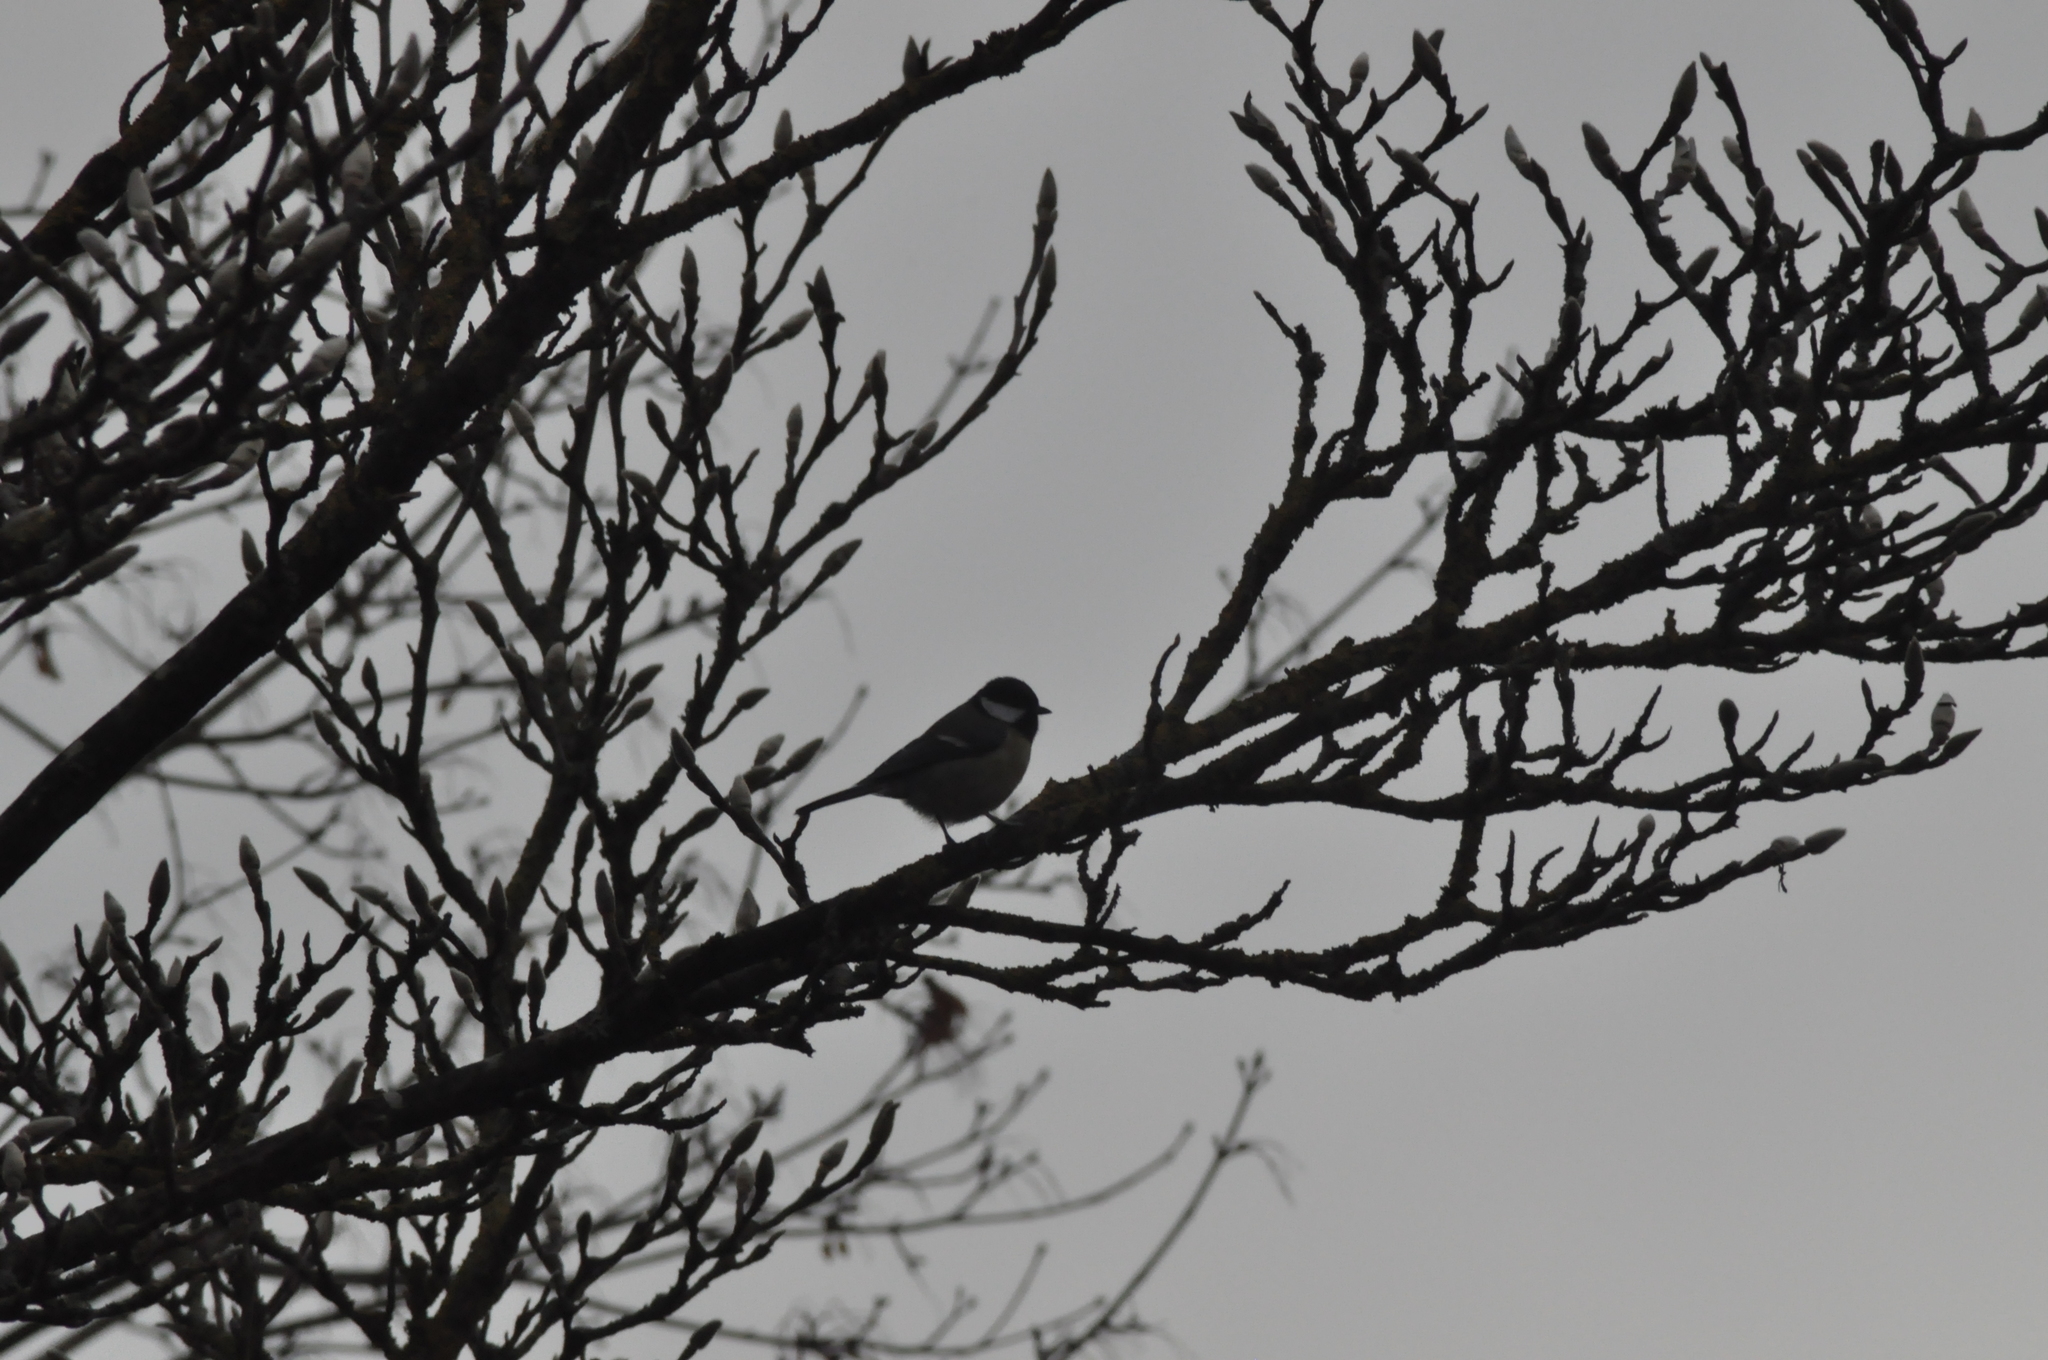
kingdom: Animalia
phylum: Chordata
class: Aves
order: Passeriformes
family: Paridae
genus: Parus
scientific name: Parus major
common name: Great tit
